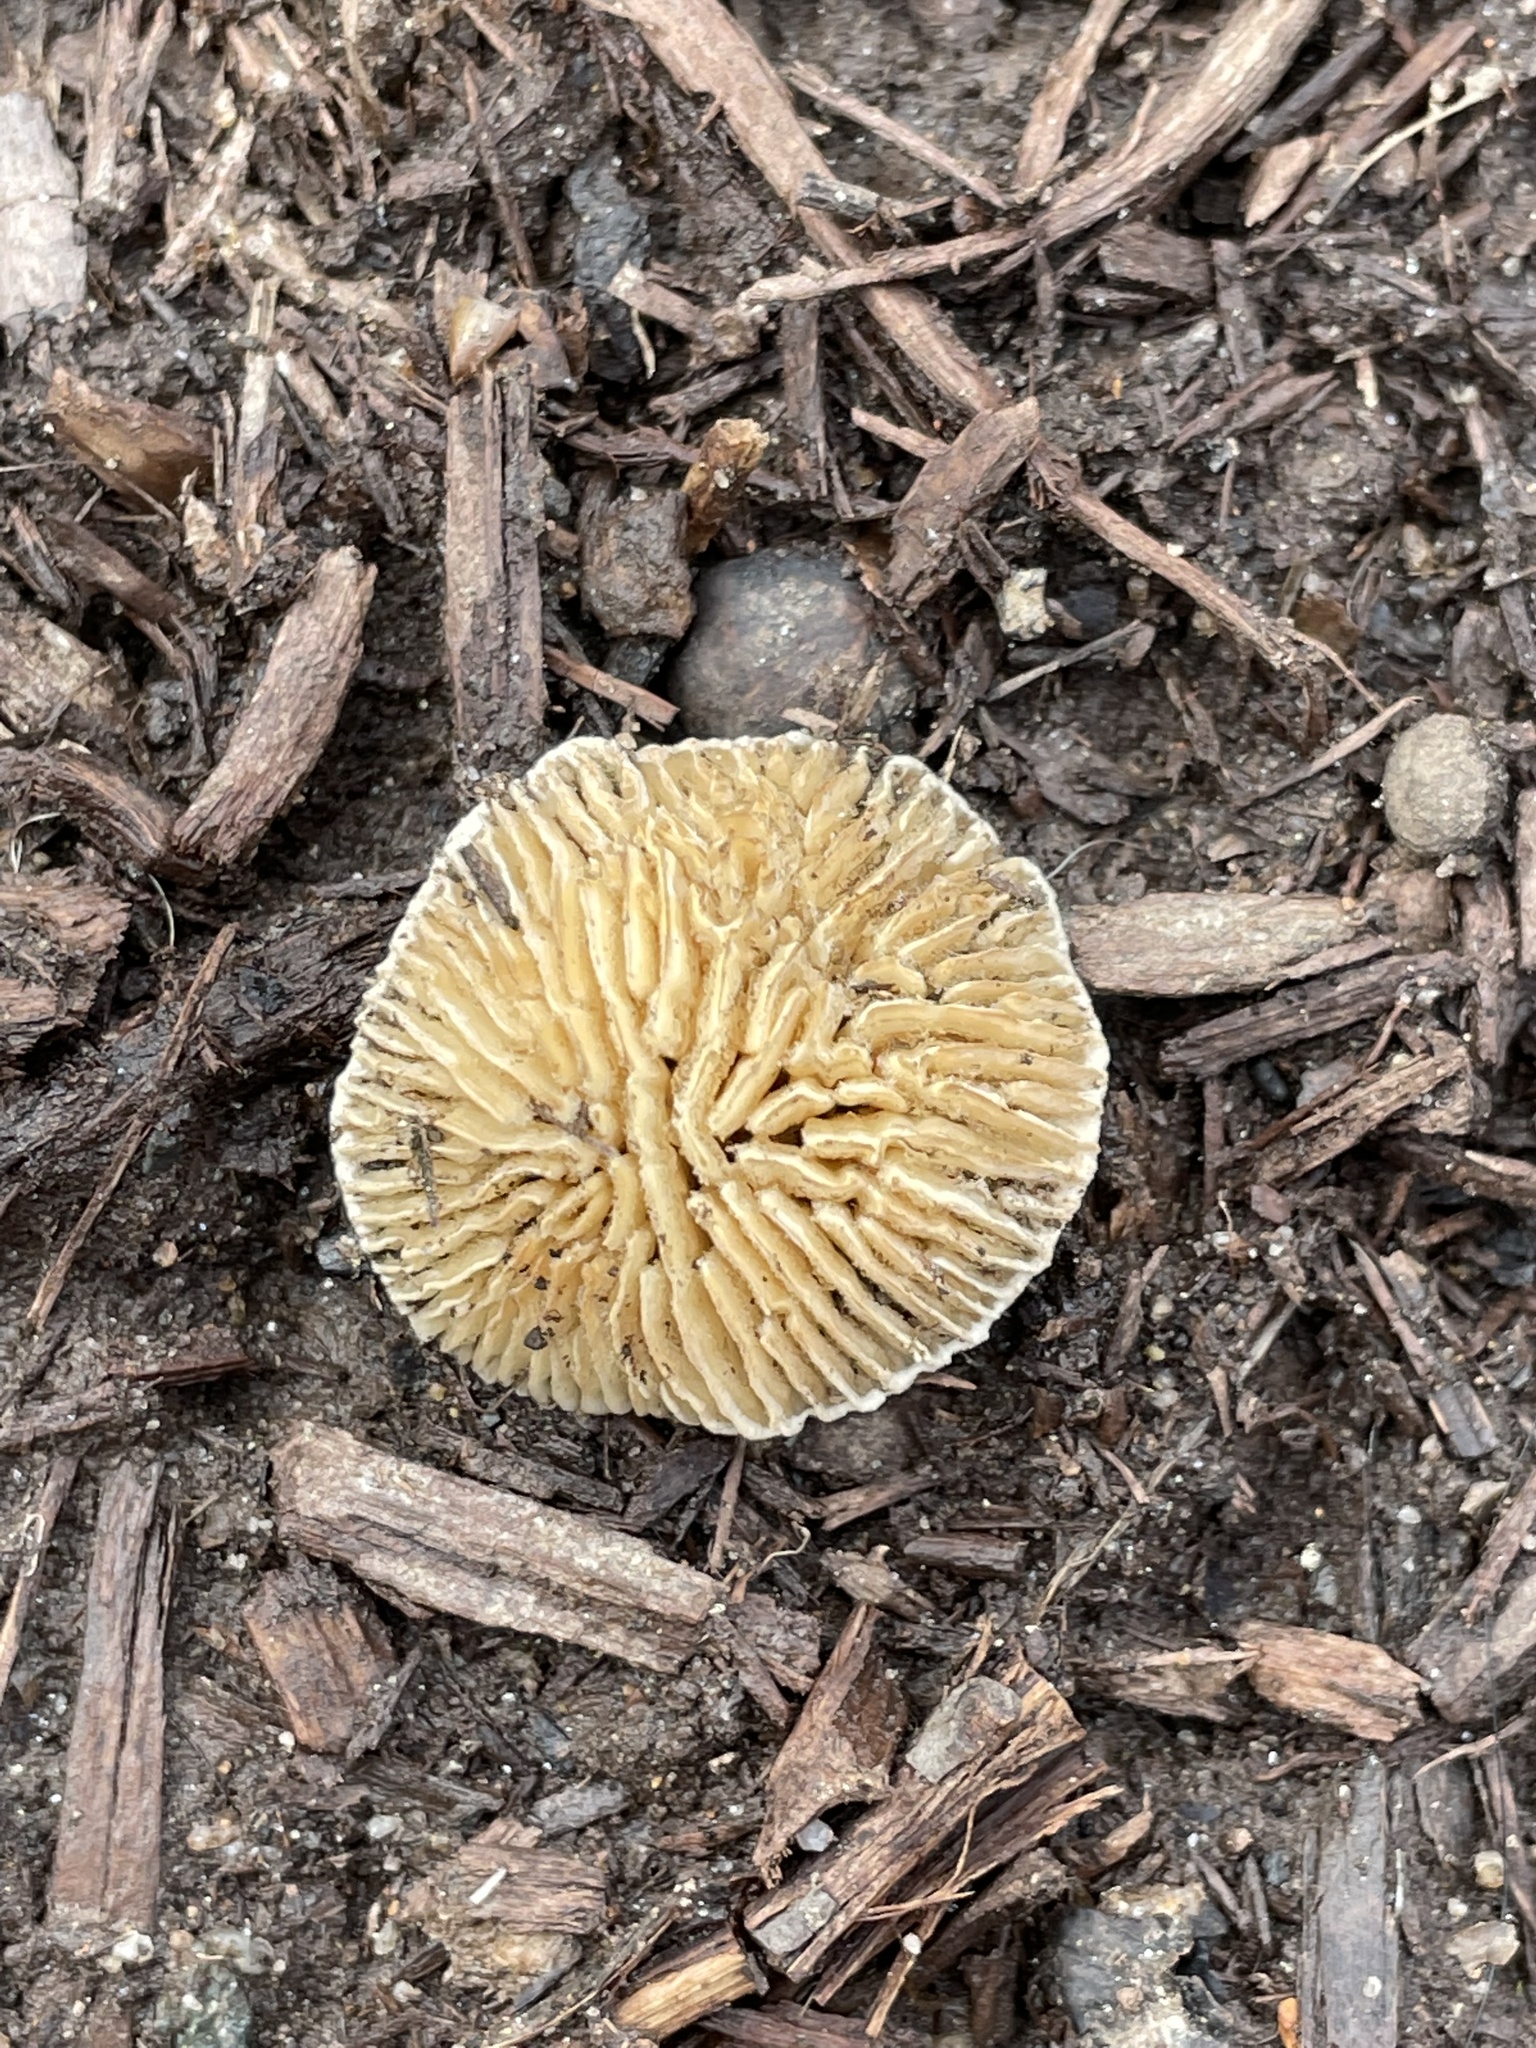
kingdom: Fungi
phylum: Basidiomycota
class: Agaricomycetes
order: Polyporales
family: Polyporaceae
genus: Lenzites
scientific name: Lenzites betulinus
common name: Birch mazegill
